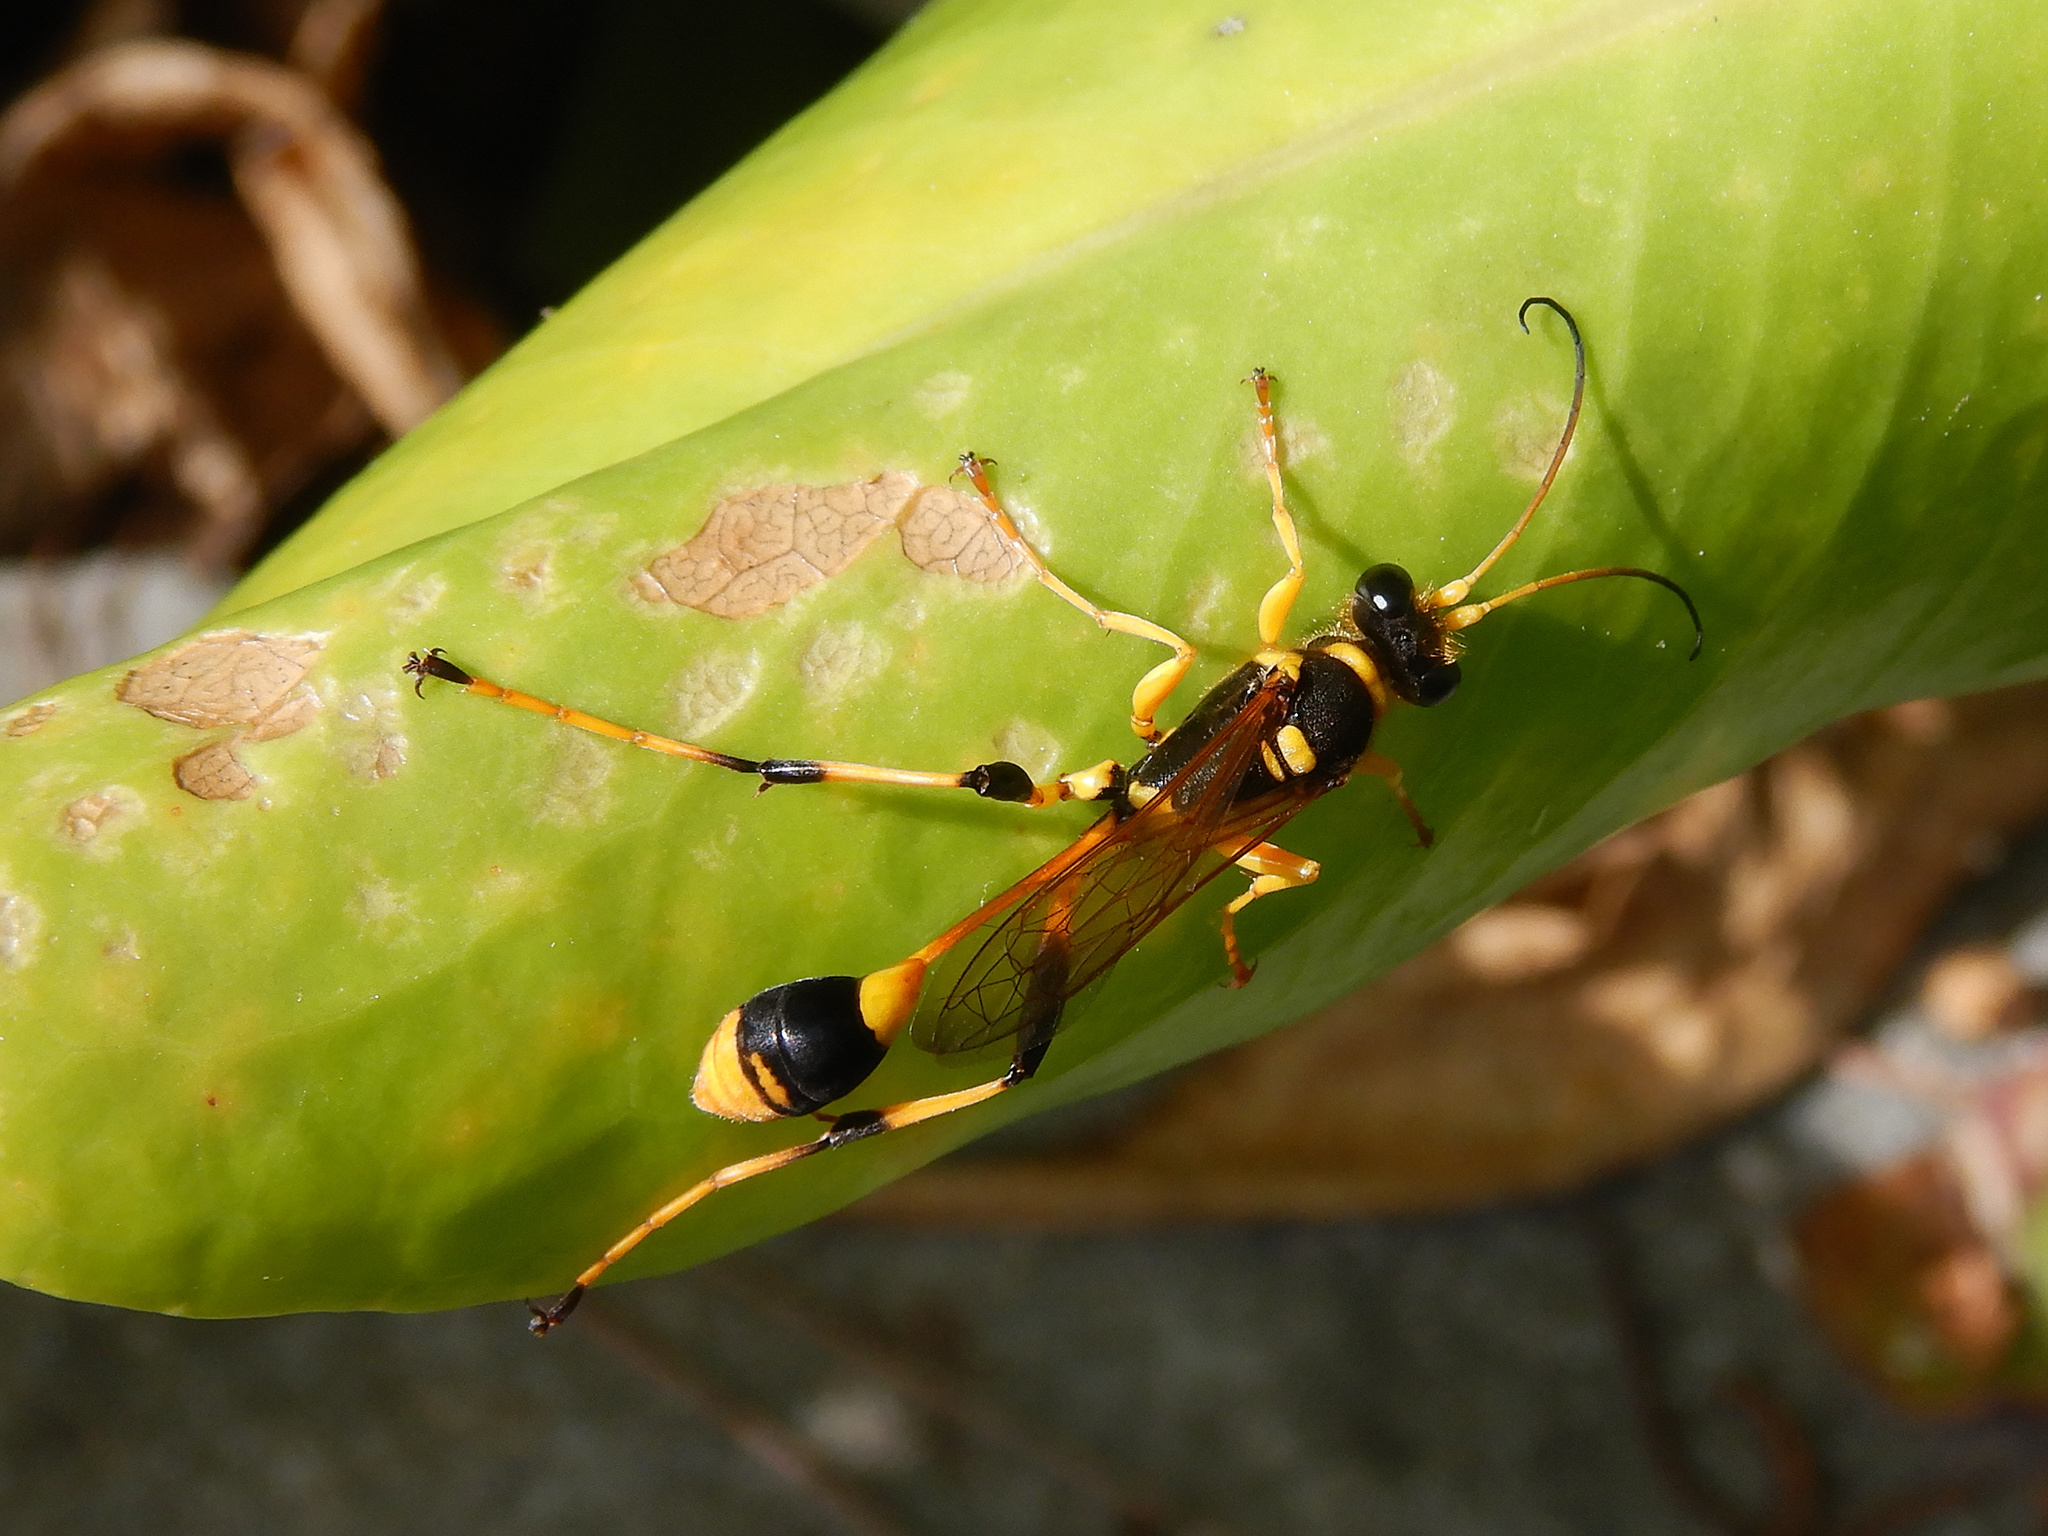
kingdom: Animalia
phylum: Arthropoda
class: Insecta
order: Hymenoptera
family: Sphecidae
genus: Sceliphron
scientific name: Sceliphron laetum
